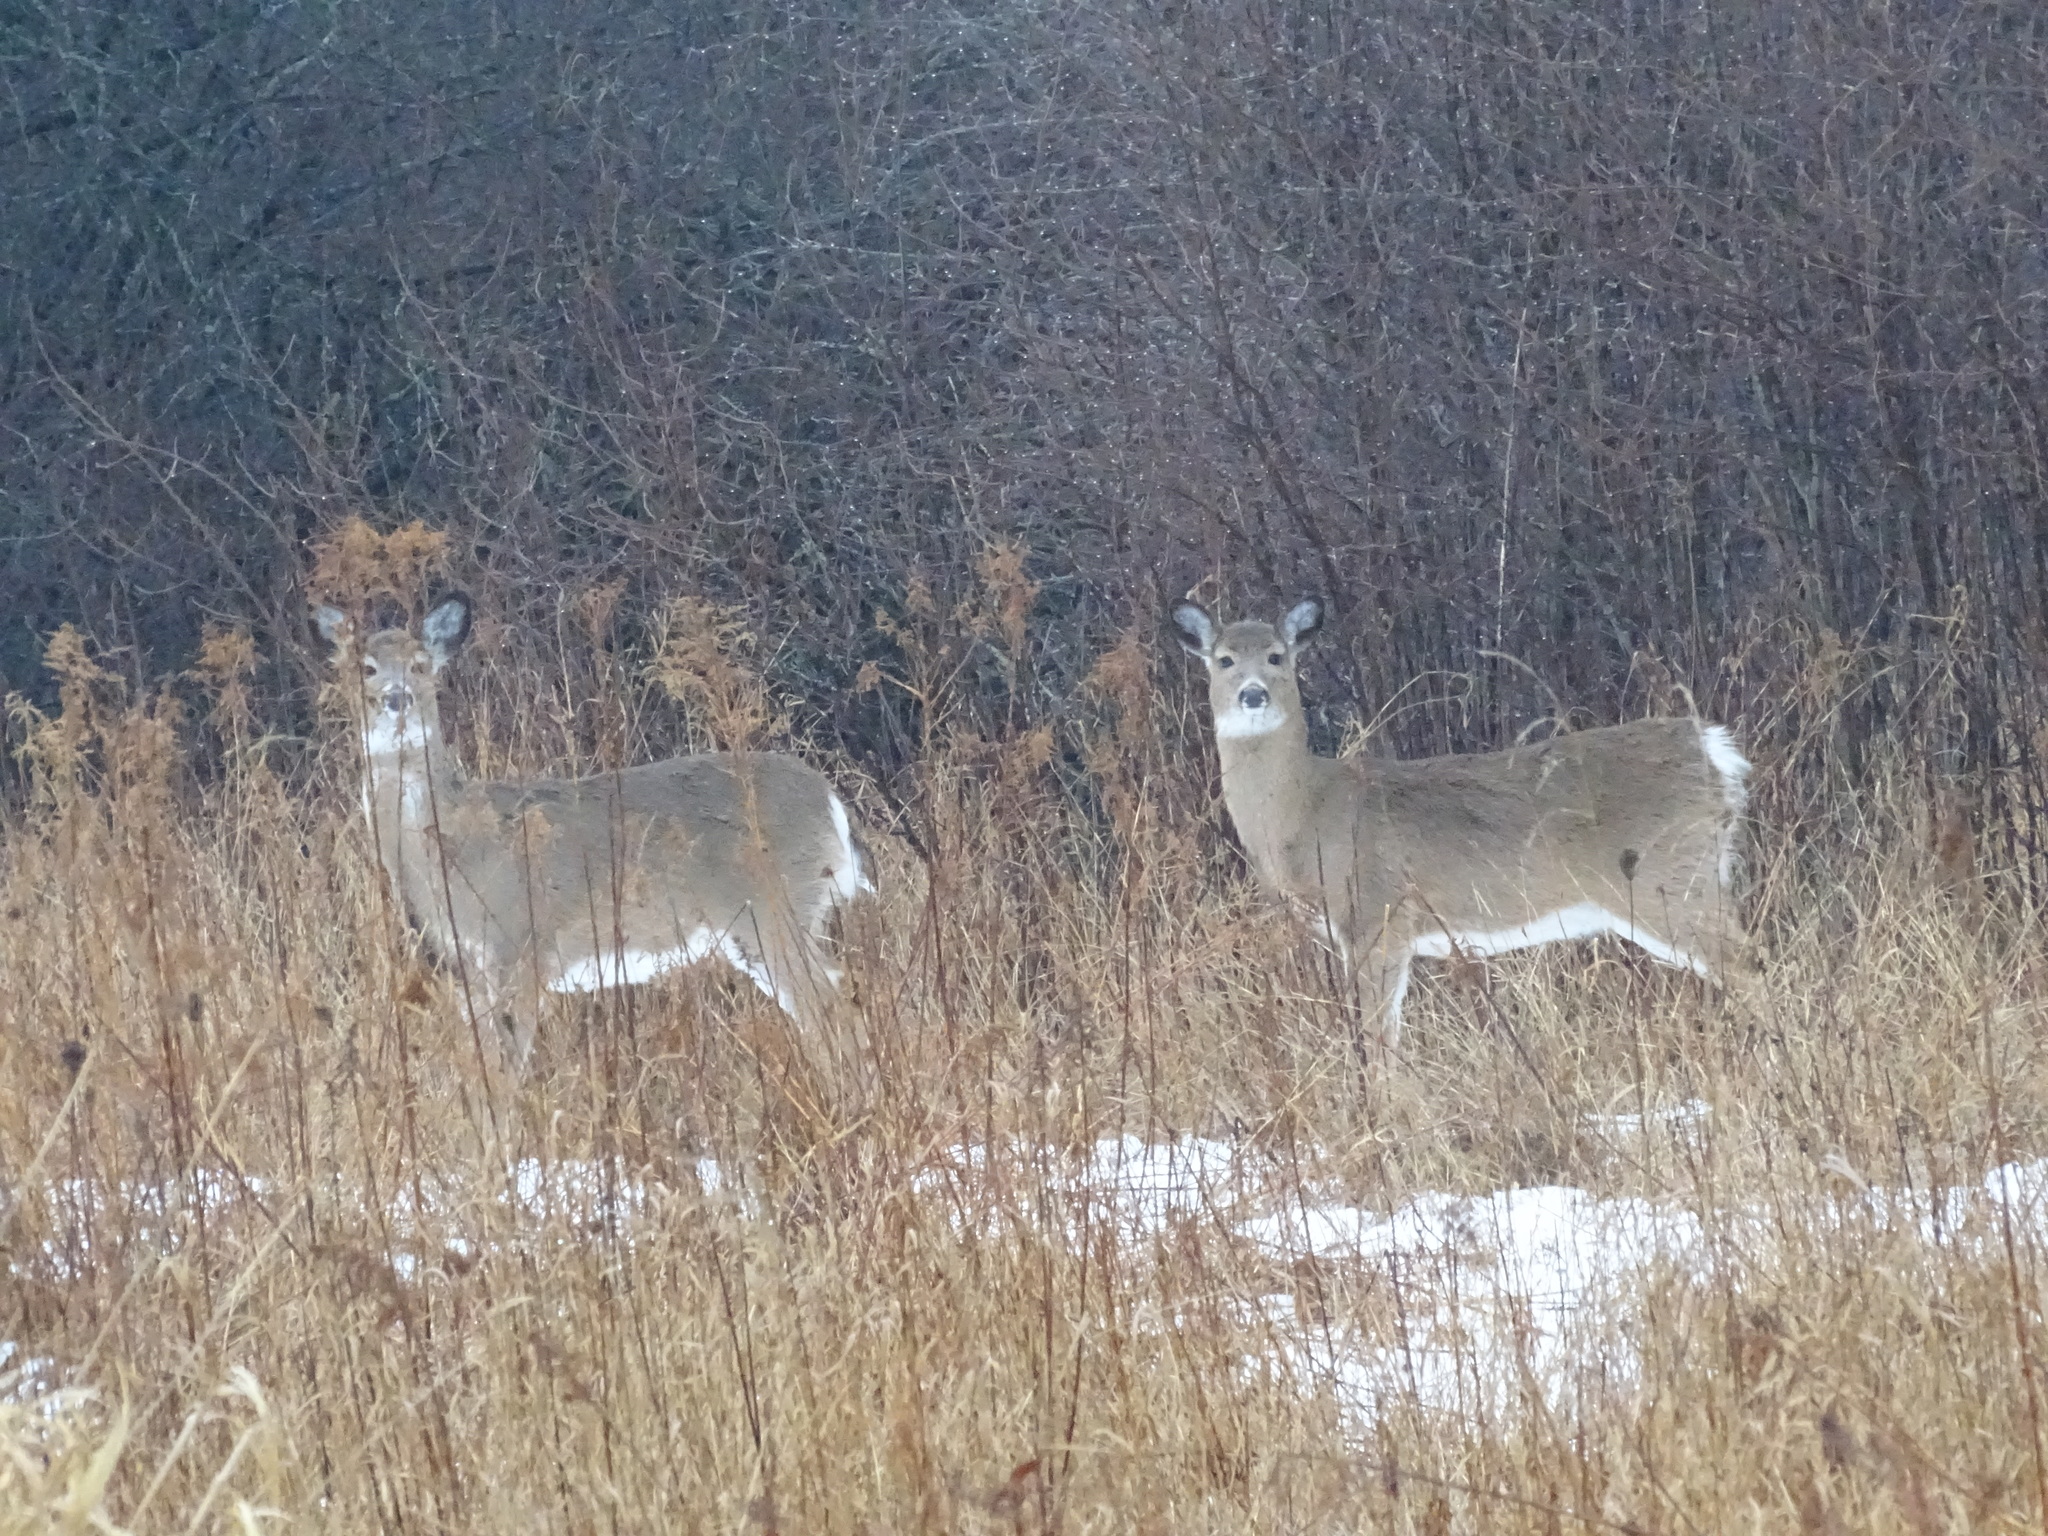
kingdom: Animalia
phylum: Chordata
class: Mammalia
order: Artiodactyla
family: Cervidae
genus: Odocoileus
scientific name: Odocoileus virginianus
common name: White-tailed deer
